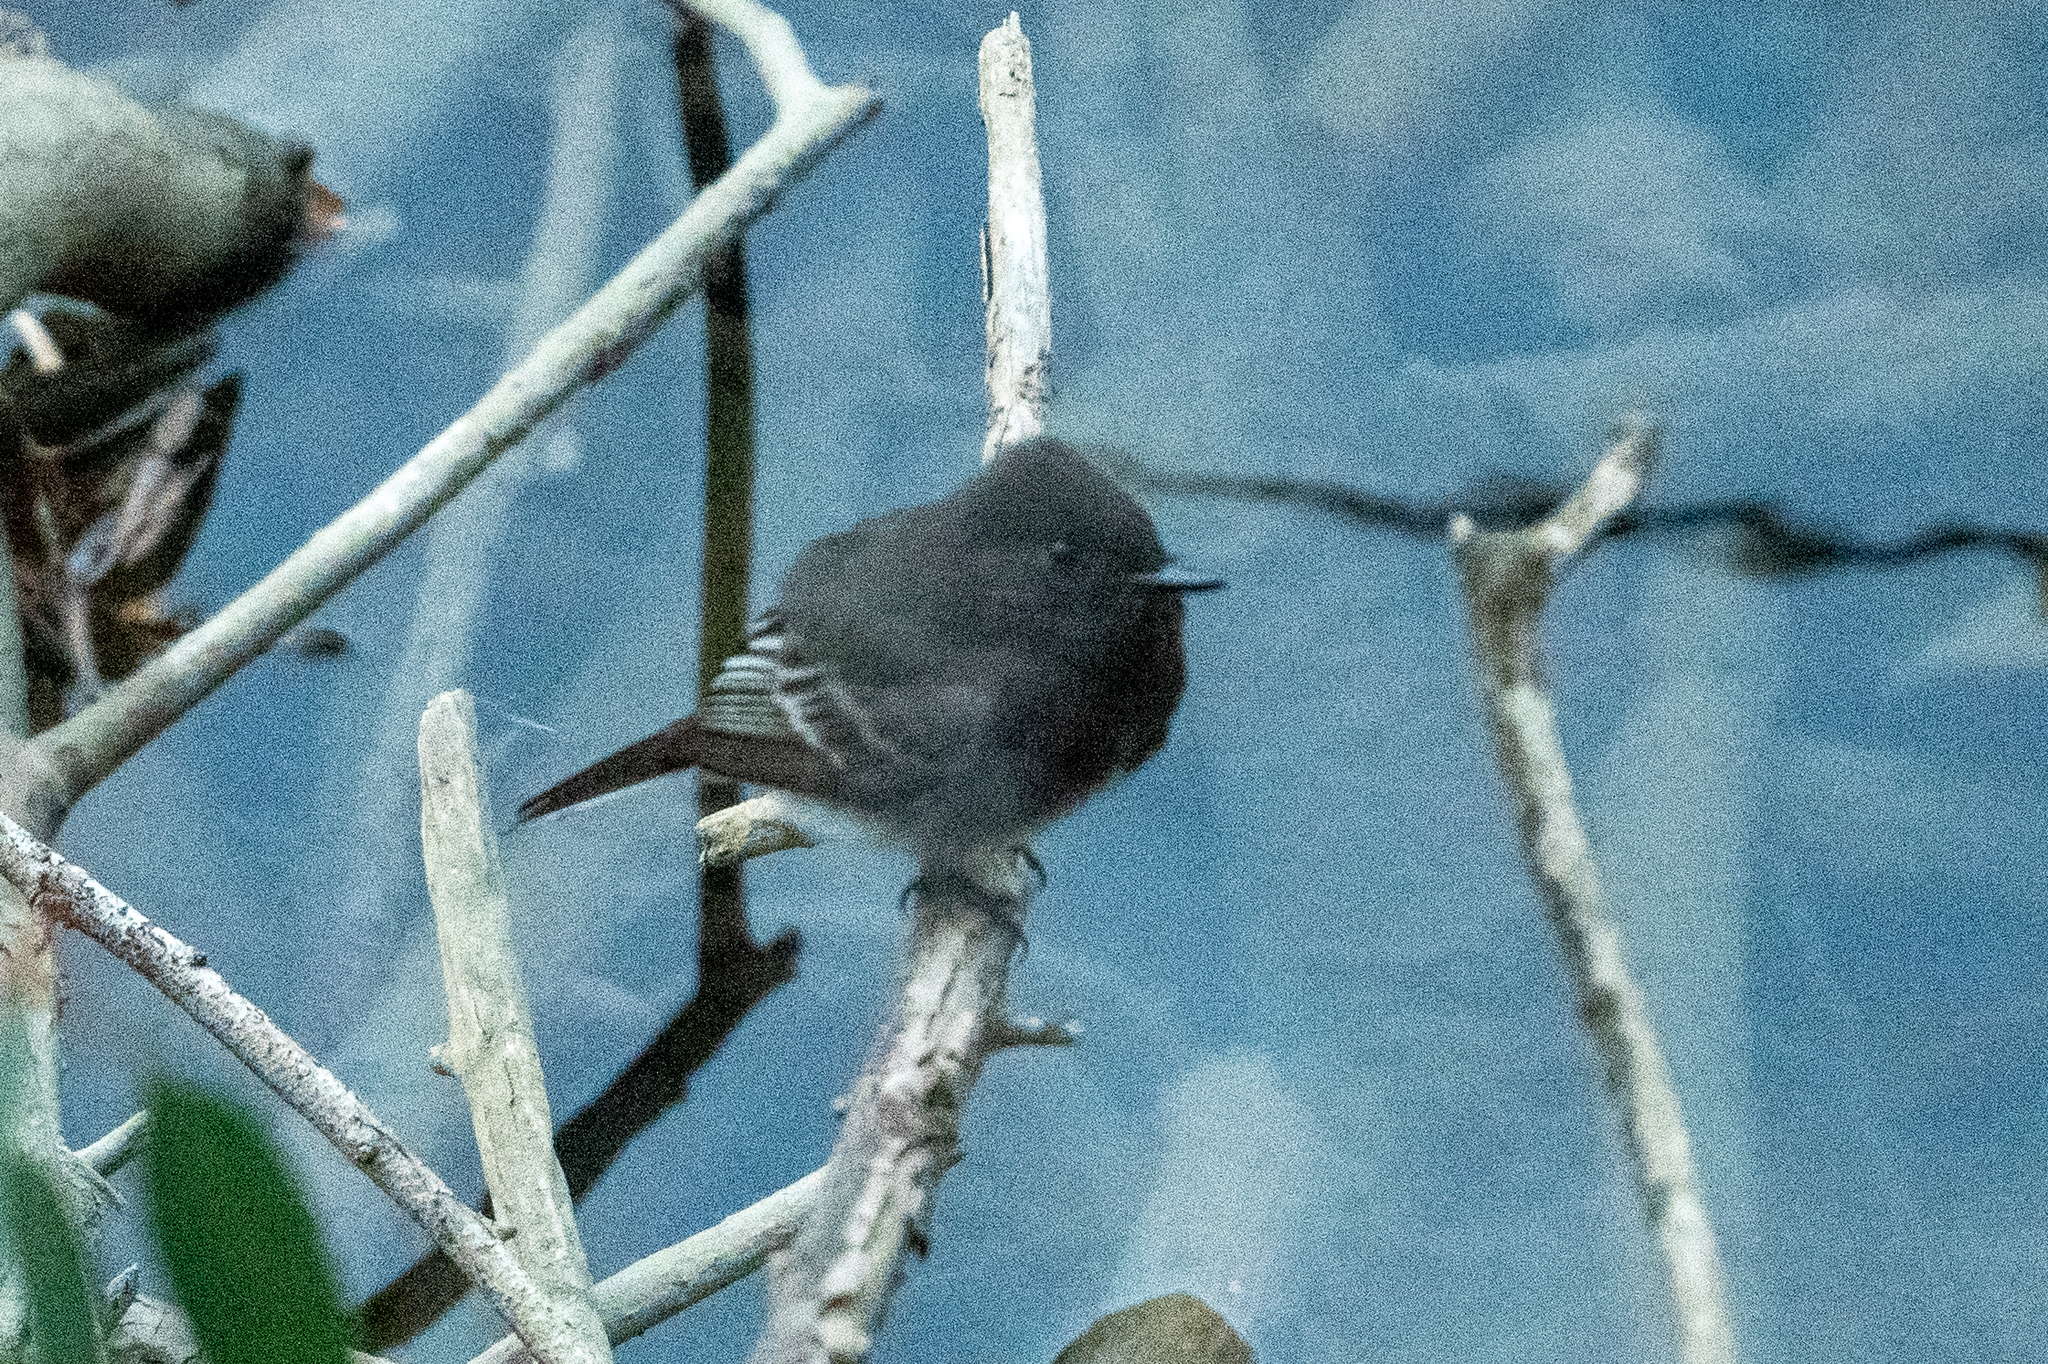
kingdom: Animalia
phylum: Chordata
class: Aves
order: Passeriformes
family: Tyrannidae
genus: Sayornis
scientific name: Sayornis nigricans
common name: Black phoebe
